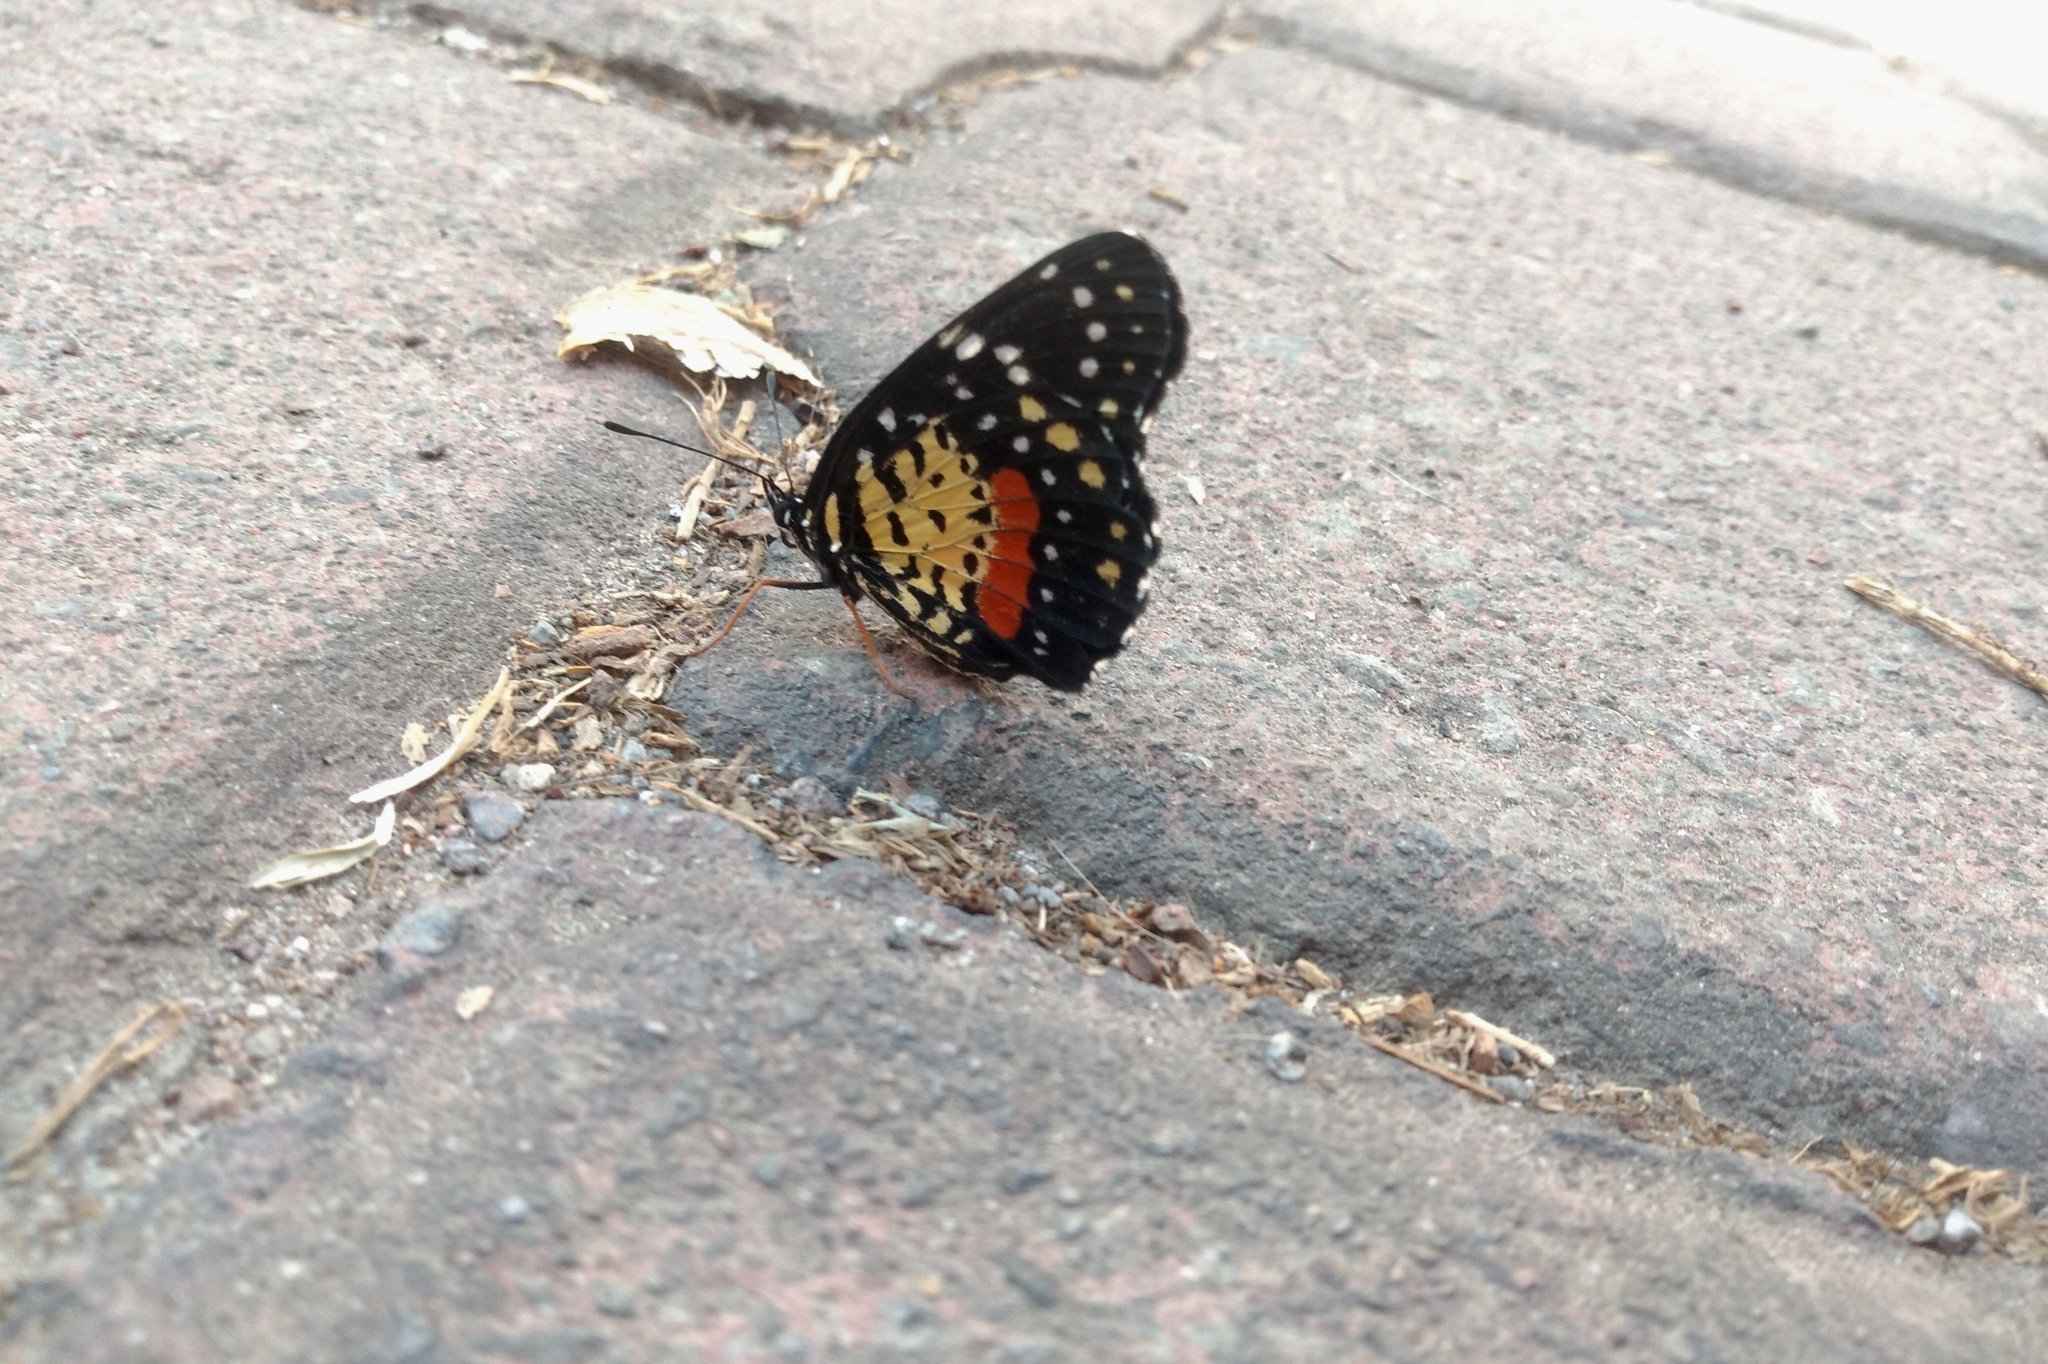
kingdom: Animalia
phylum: Arthropoda
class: Insecta
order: Lepidoptera
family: Nymphalidae
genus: Chlosyne
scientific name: Chlosyne janais
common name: Crimson patch
